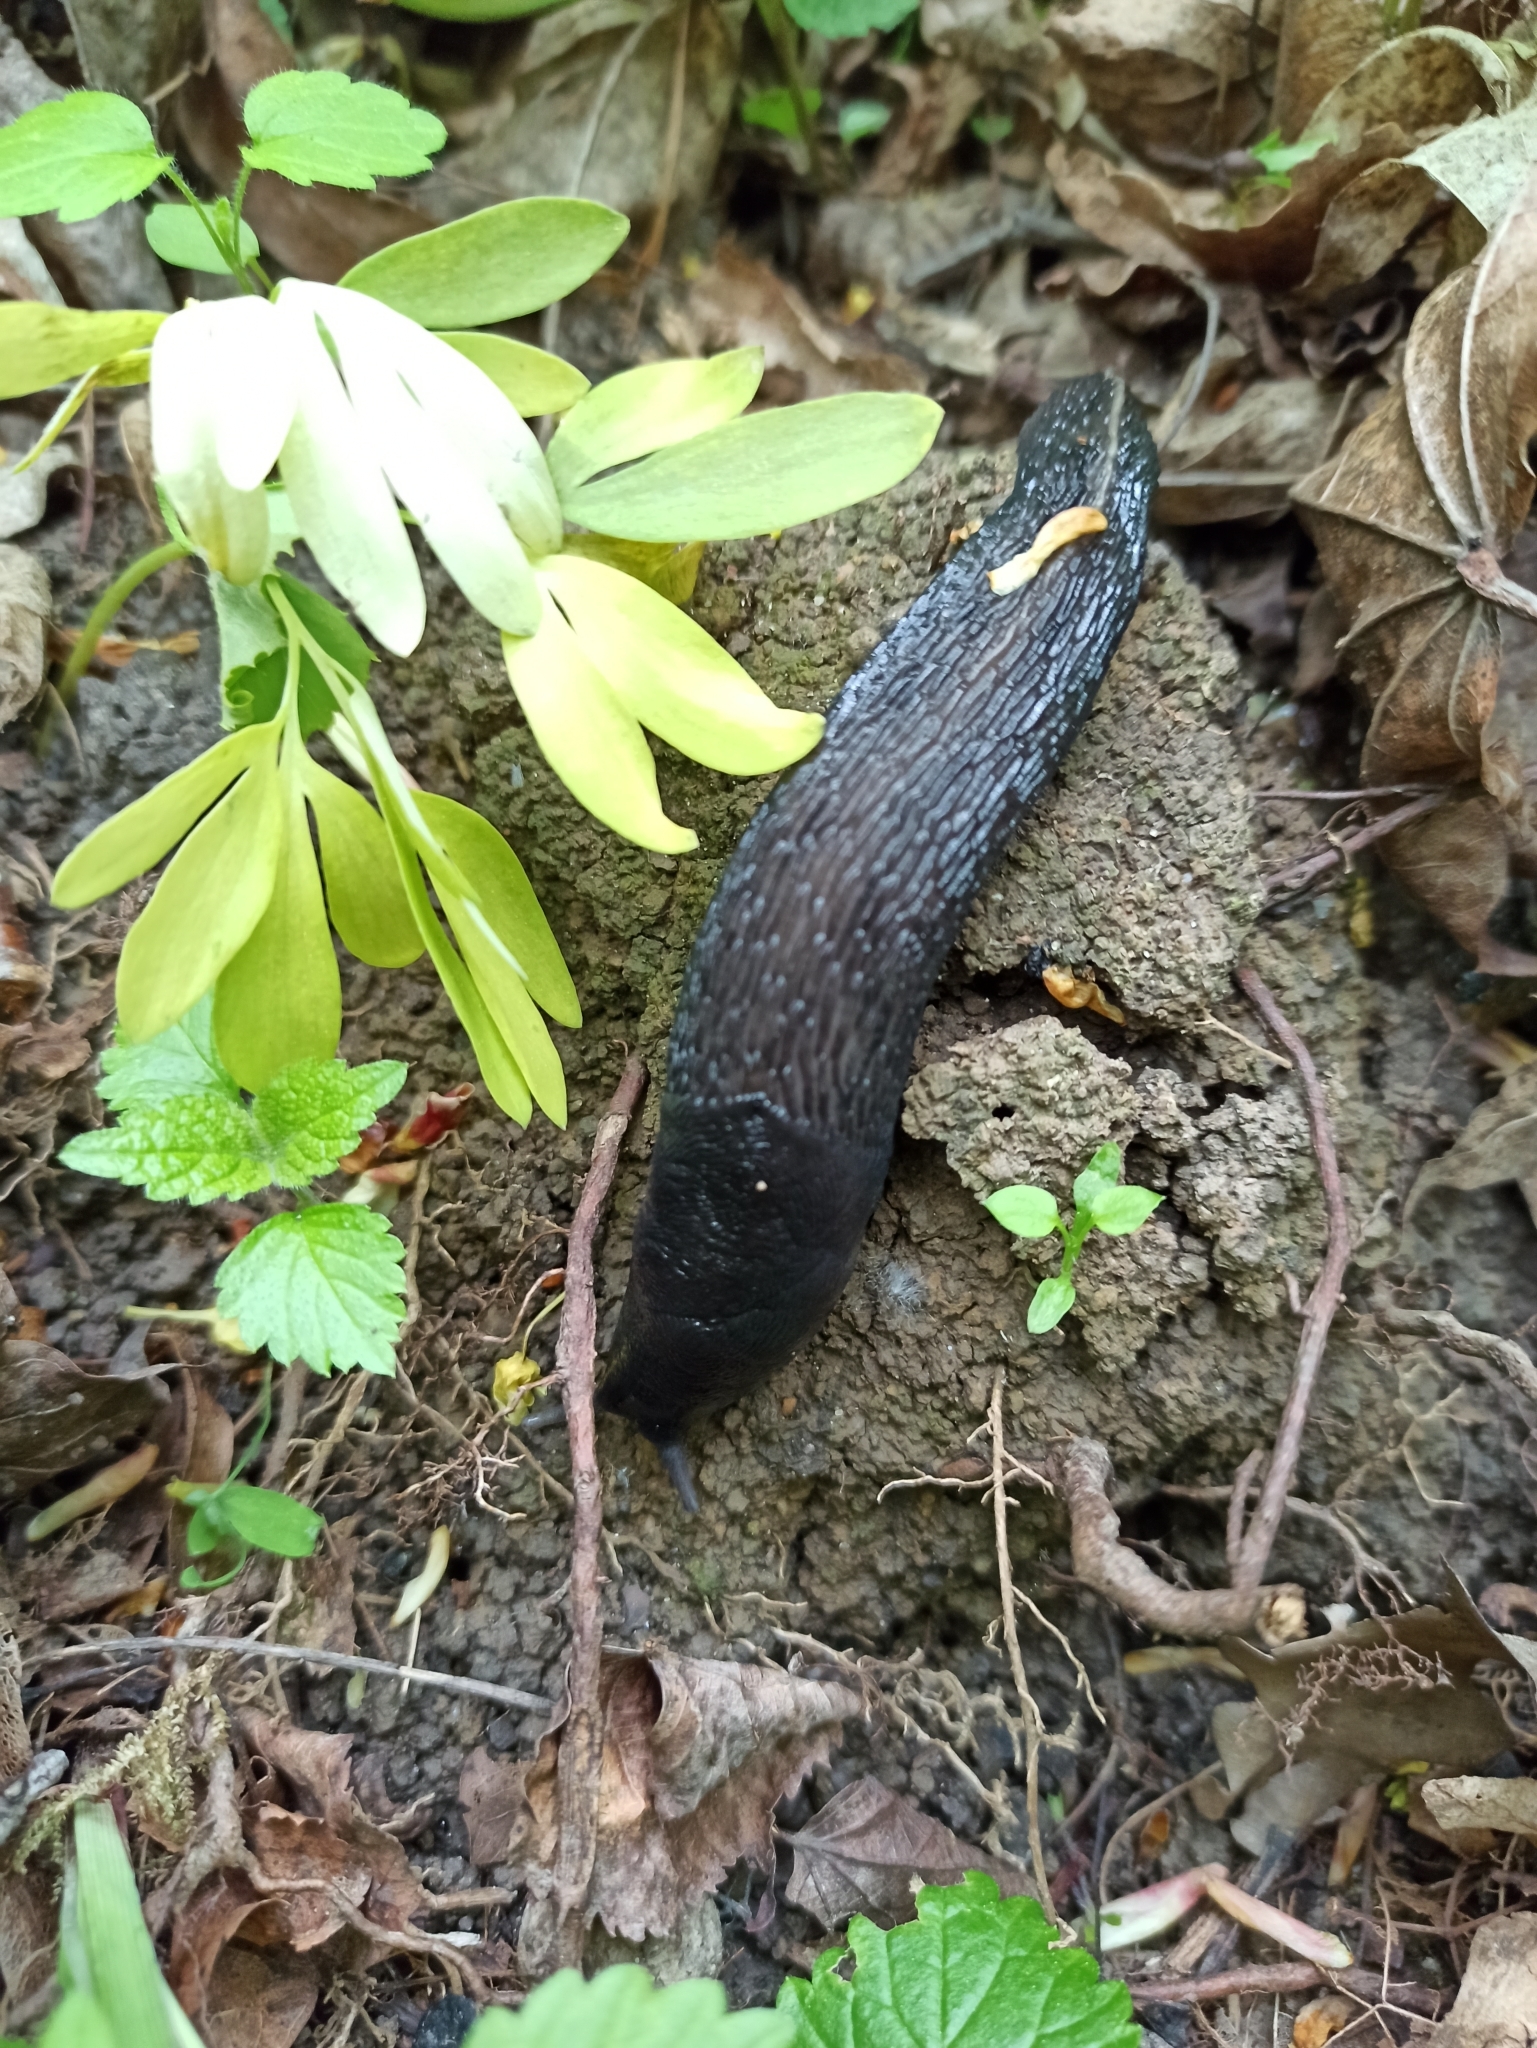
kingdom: Animalia
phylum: Mollusca
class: Gastropoda
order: Stylommatophora
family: Limacidae
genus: Limax
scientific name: Limax cinereoniger
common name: Ash-black slug
